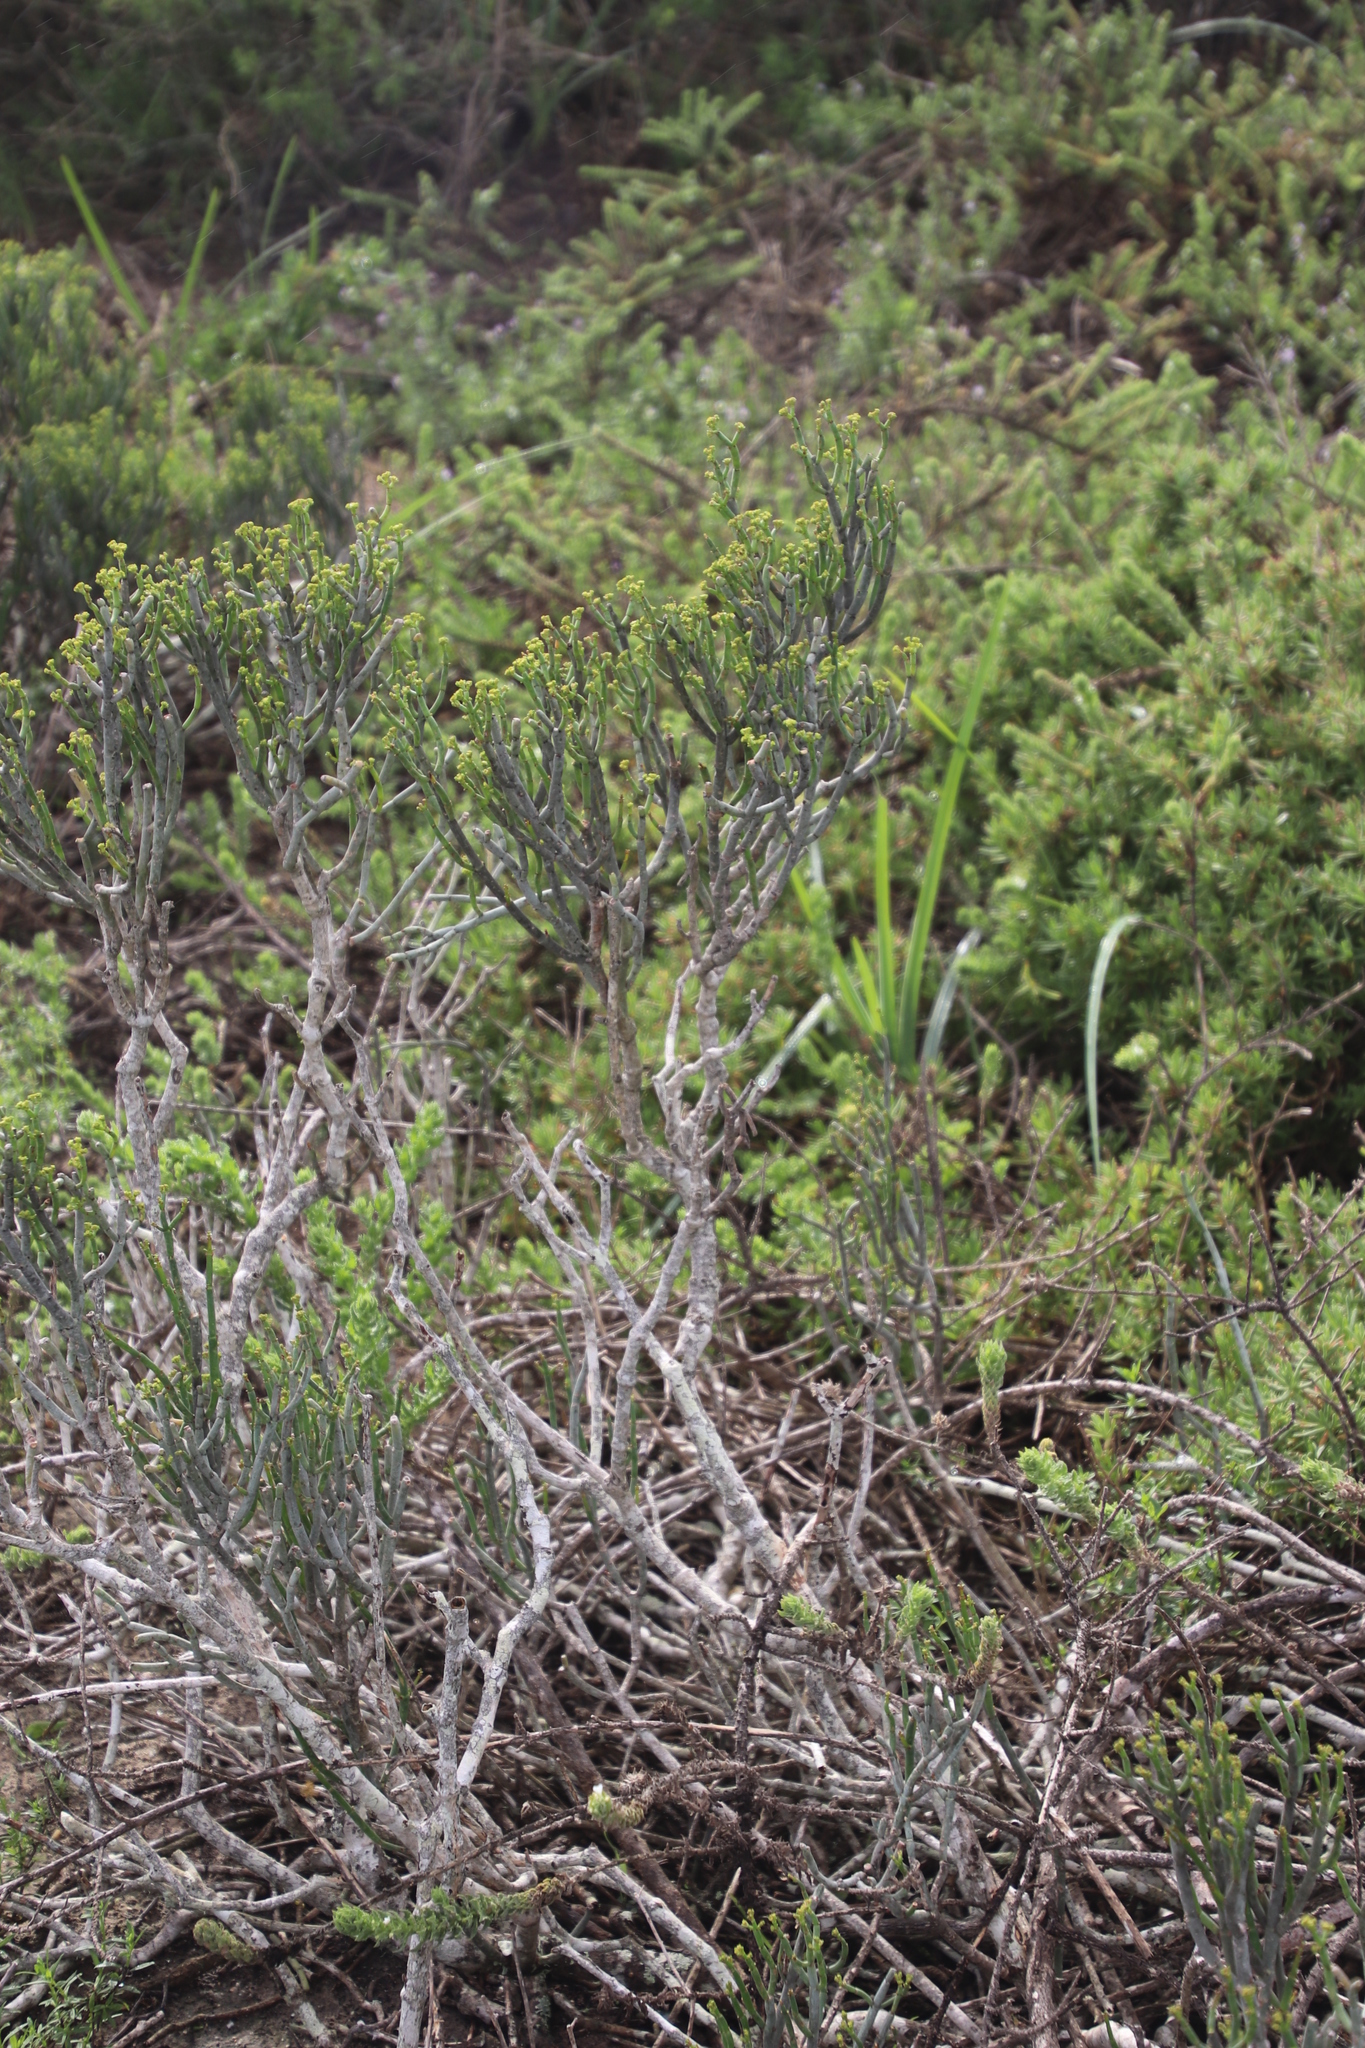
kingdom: Plantae
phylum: Tracheophyta
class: Magnoliopsida
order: Malpighiales
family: Euphorbiaceae
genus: Euphorbia
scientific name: Euphorbia burmanni
